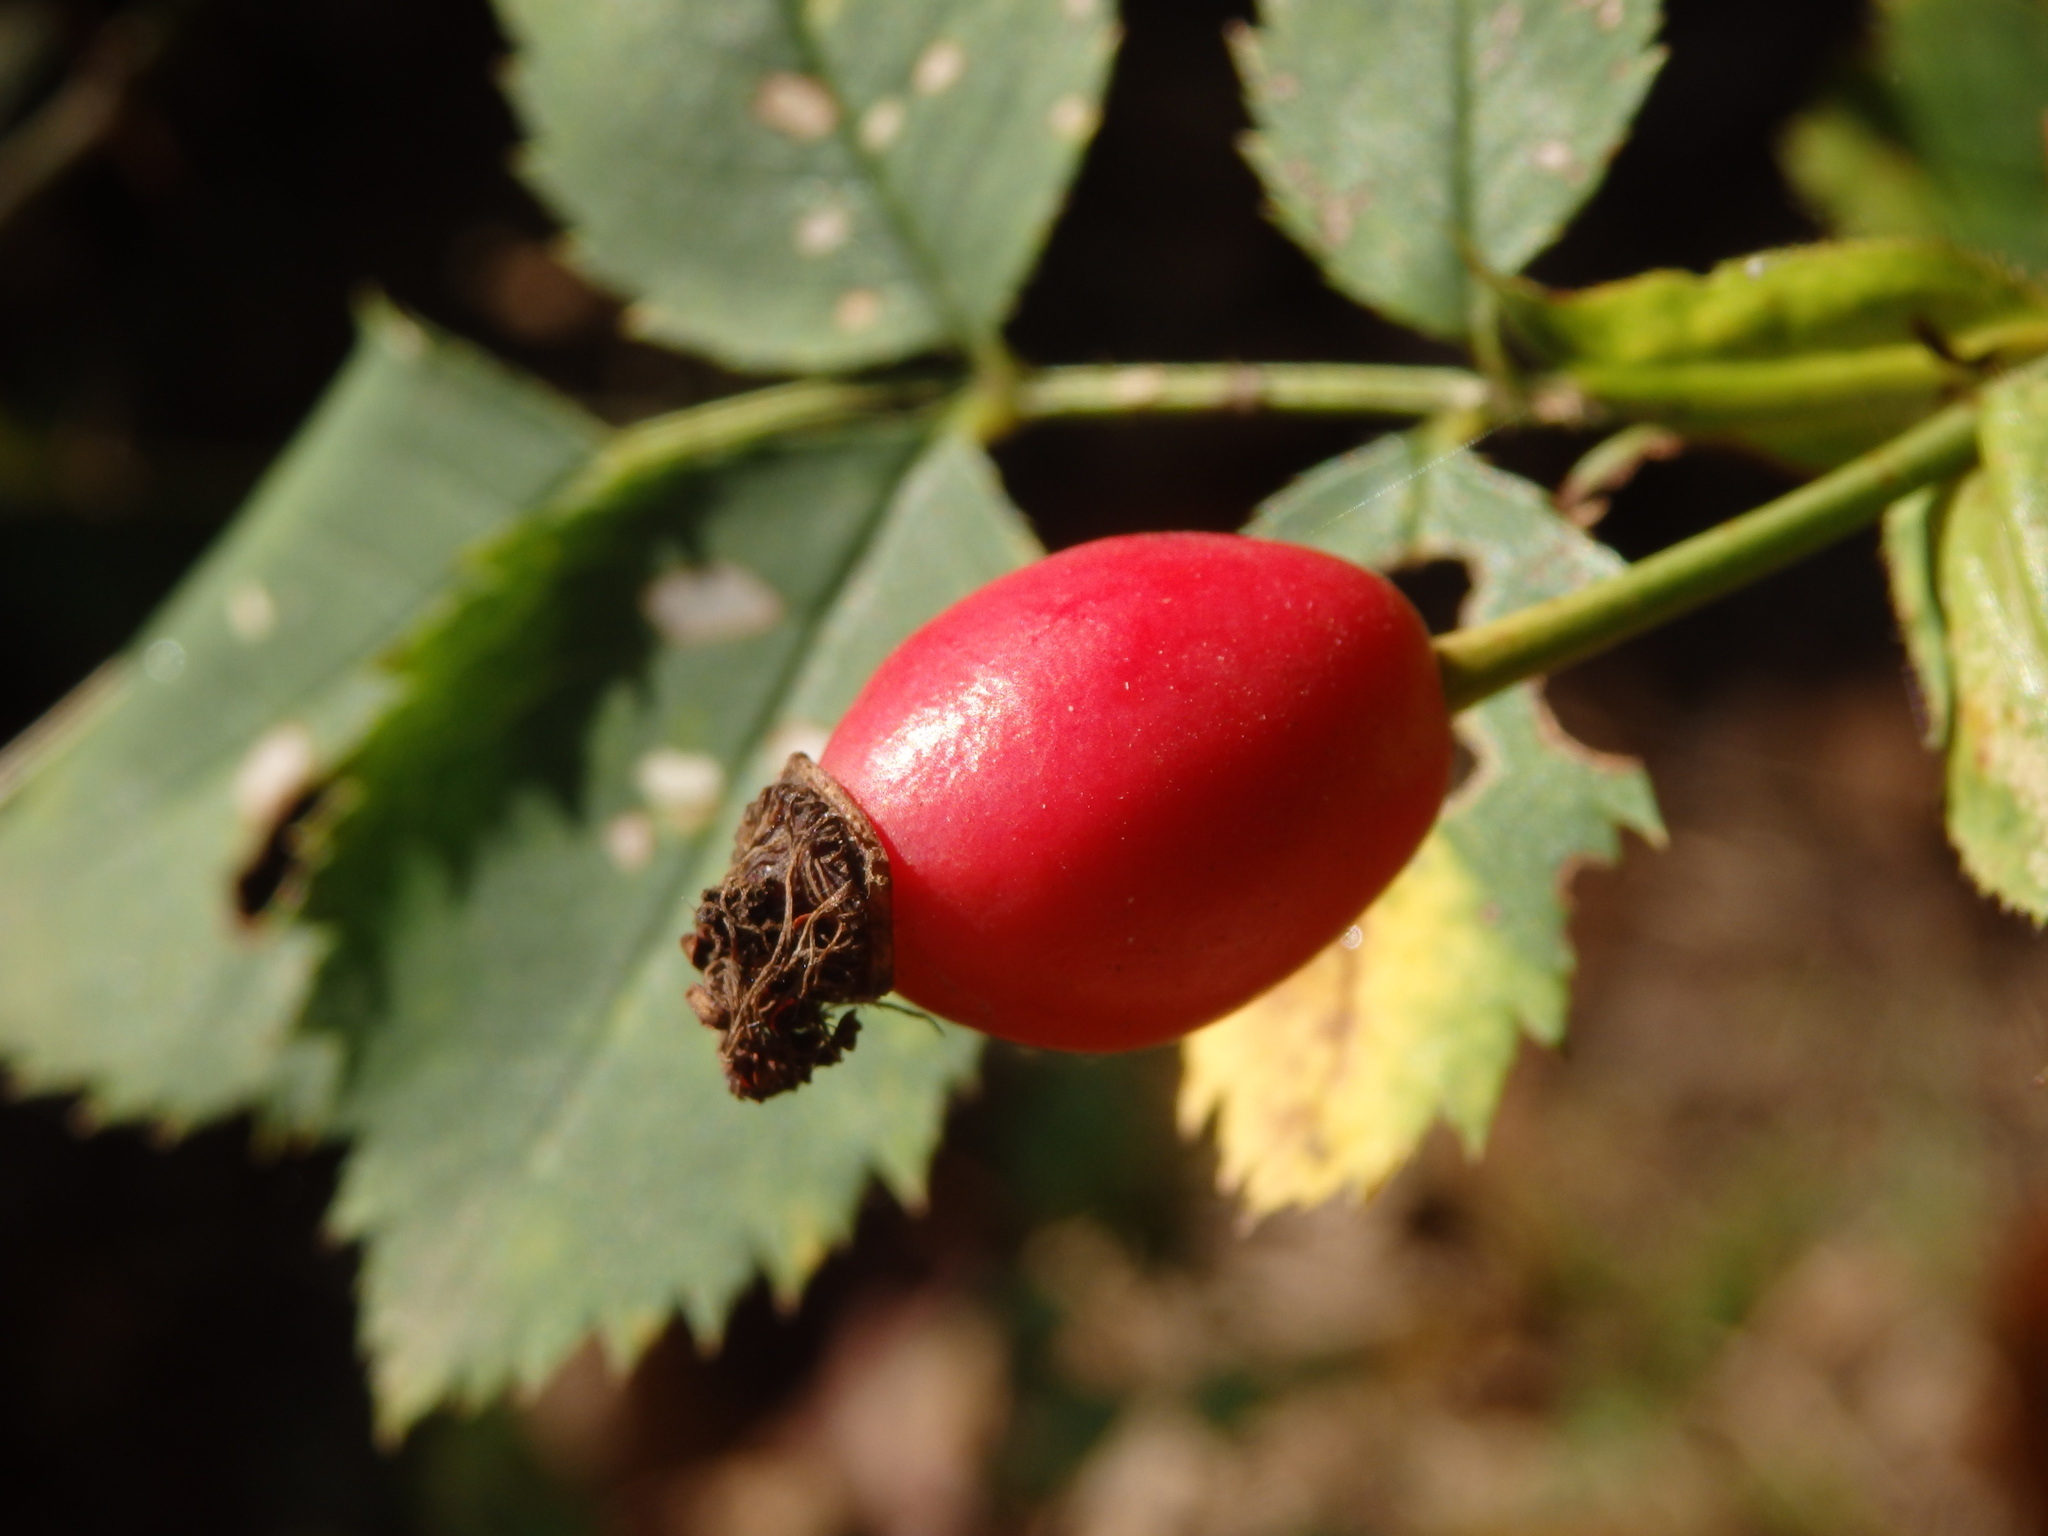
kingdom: Plantae
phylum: Tracheophyta
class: Magnoliopsida
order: Rosales
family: Rosaceae
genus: Rosa
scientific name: Rosa canina
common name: Dog rose
